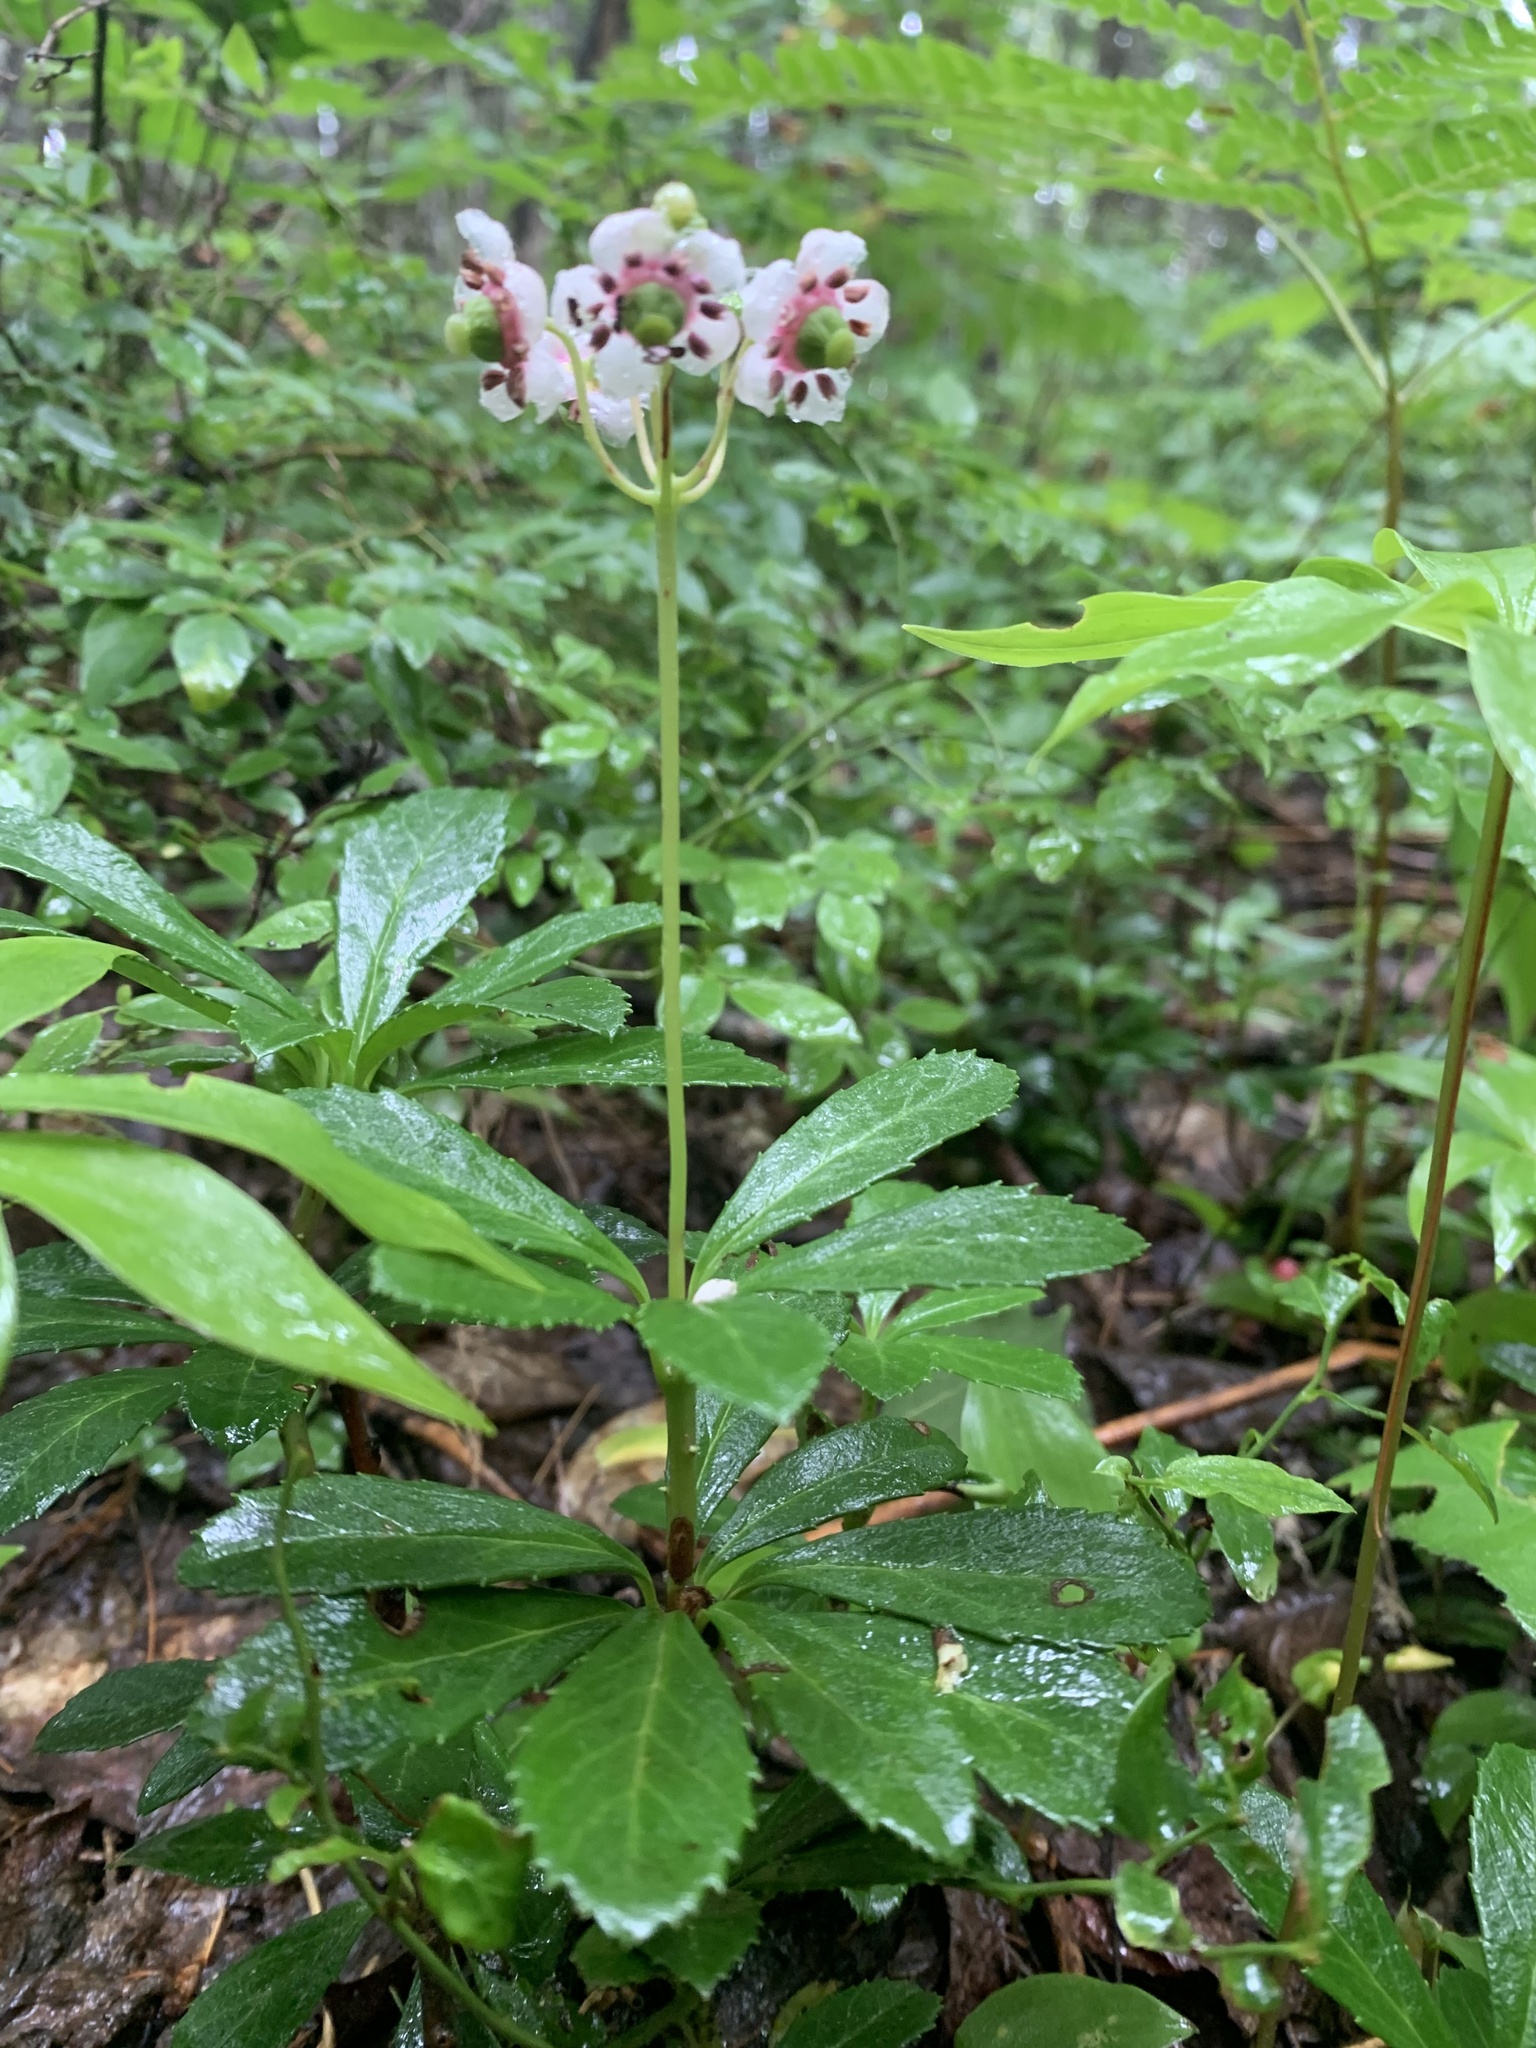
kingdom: Plantae
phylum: Tracheophyta
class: Magnoliopsida
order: Ericales
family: Ericaceae
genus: Chimaphila
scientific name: Chimaphila umbellata
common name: Pipsissewa
